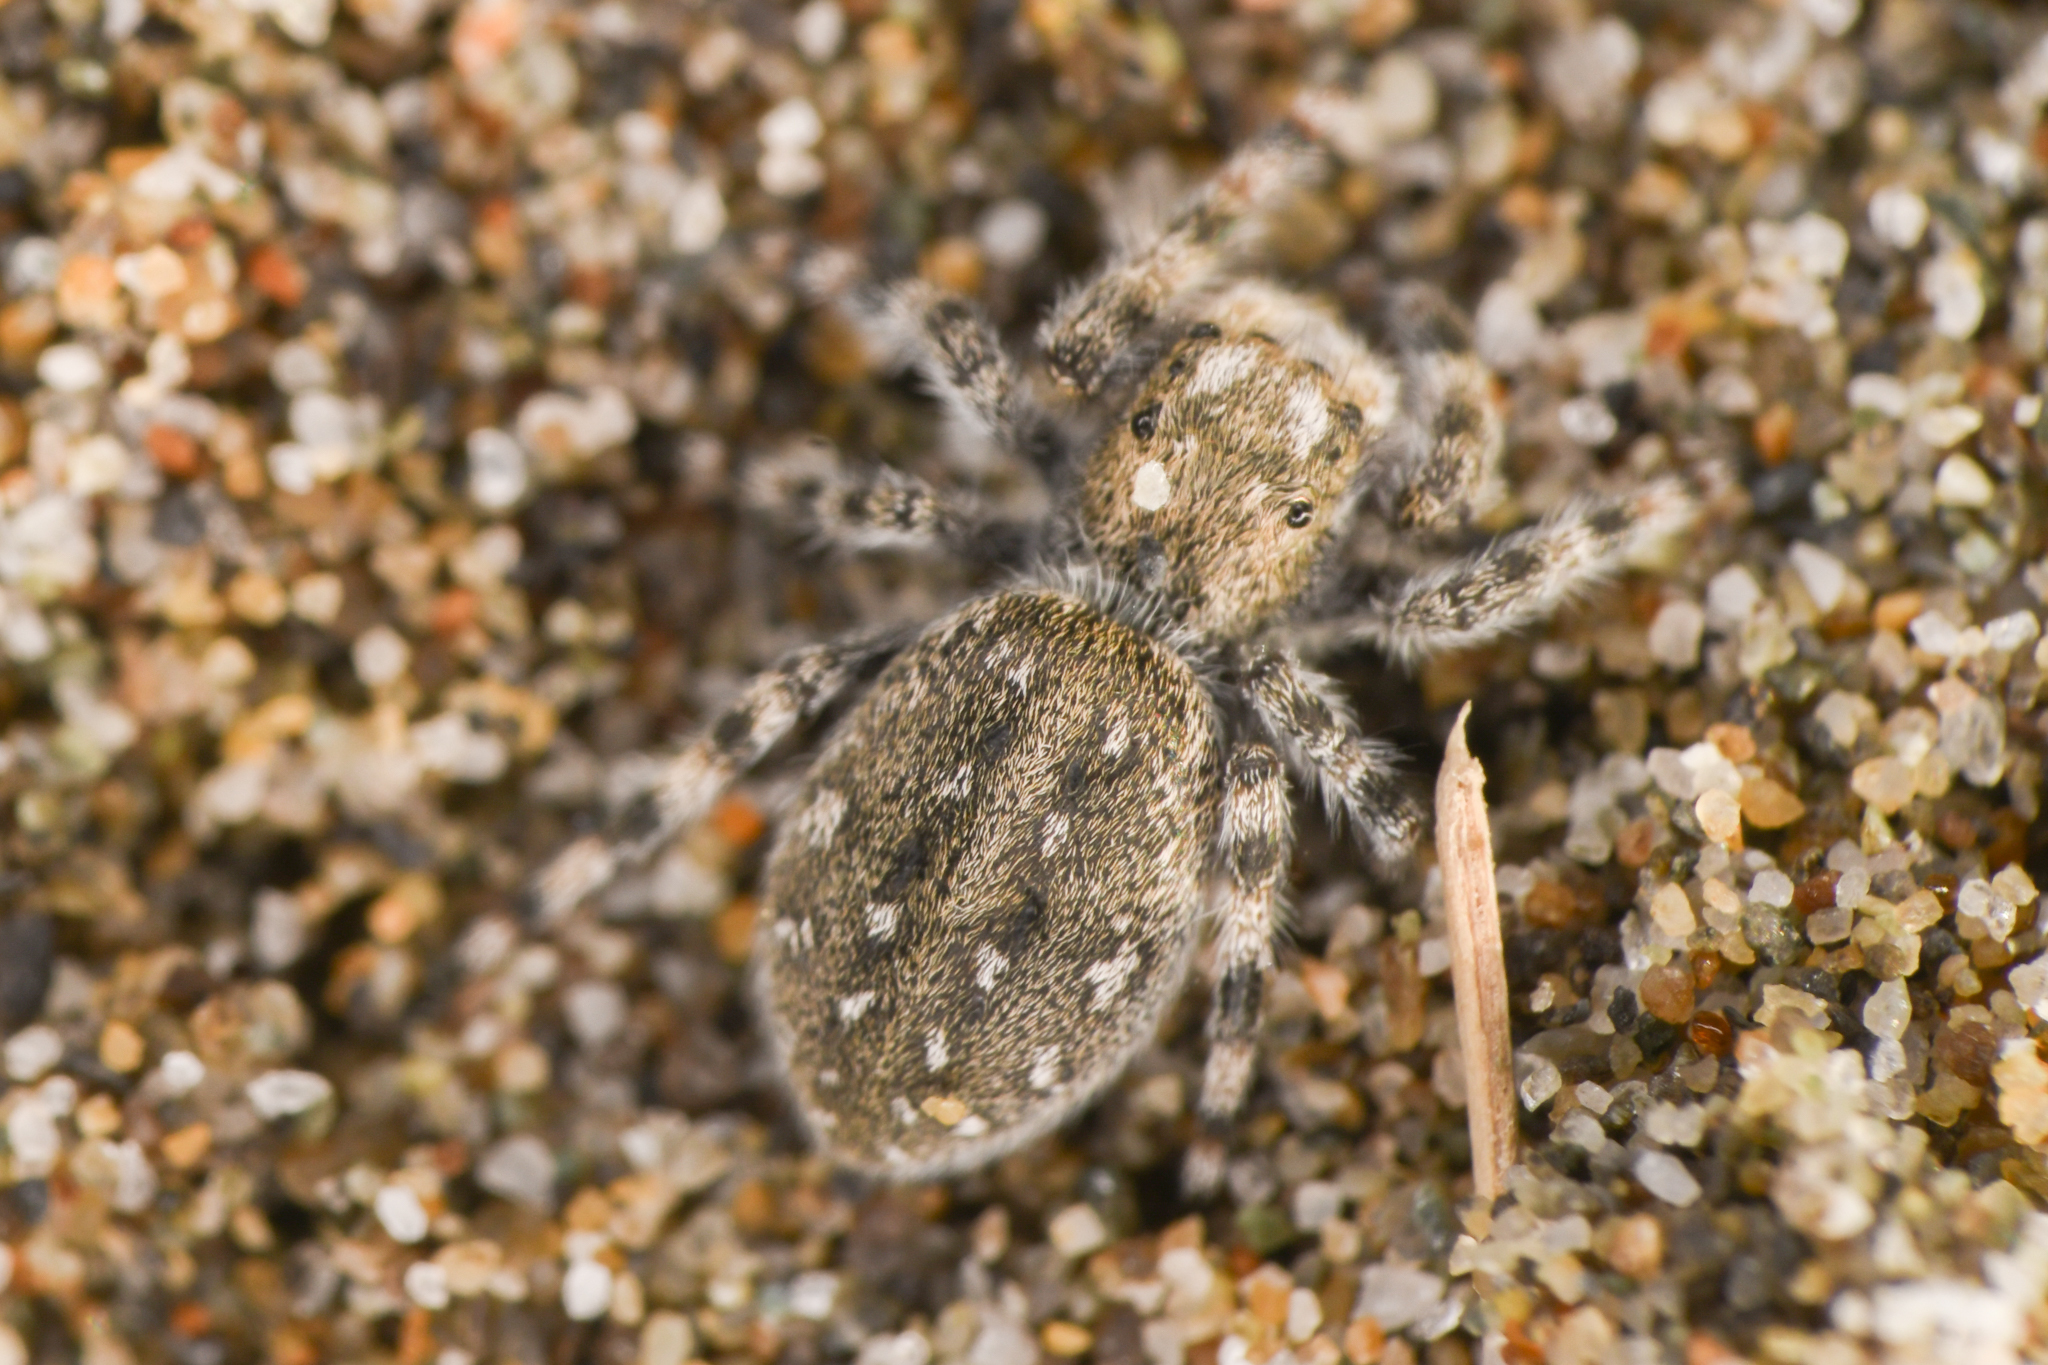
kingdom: Animalia
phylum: Arthropoda
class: Arachnida
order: Araneae
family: Salticidae
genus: Terralonus
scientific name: Terralonus californicus
